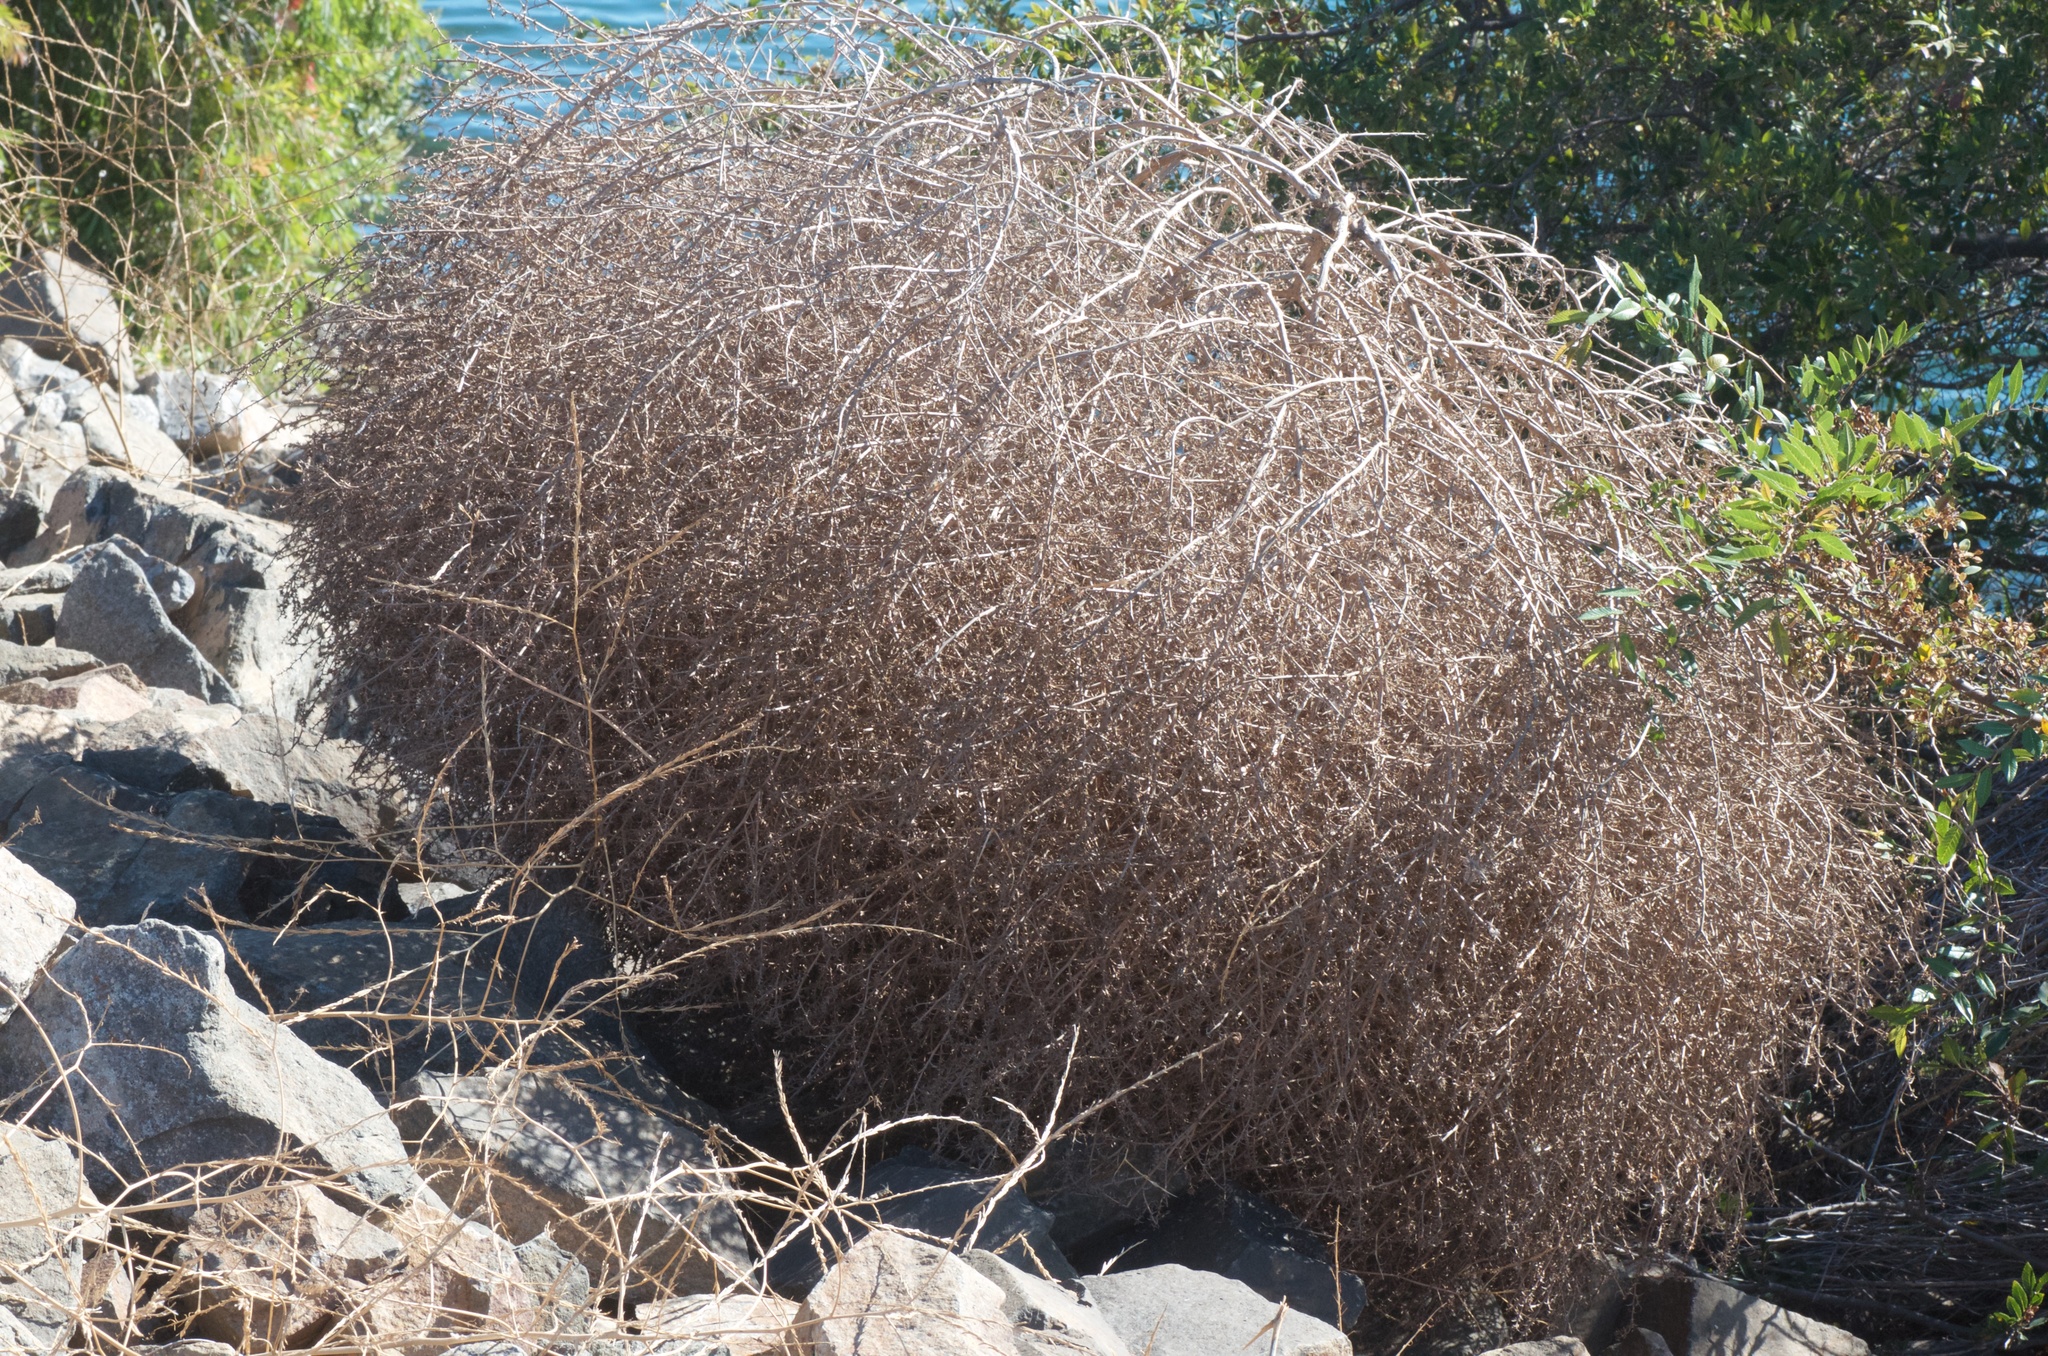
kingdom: Plantae
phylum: Tracheophyta
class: Magnoliopsida
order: Caryophyllales
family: Amaranthaceae
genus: Salsola
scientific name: Salsola tragus
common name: Prickly russian thistle
